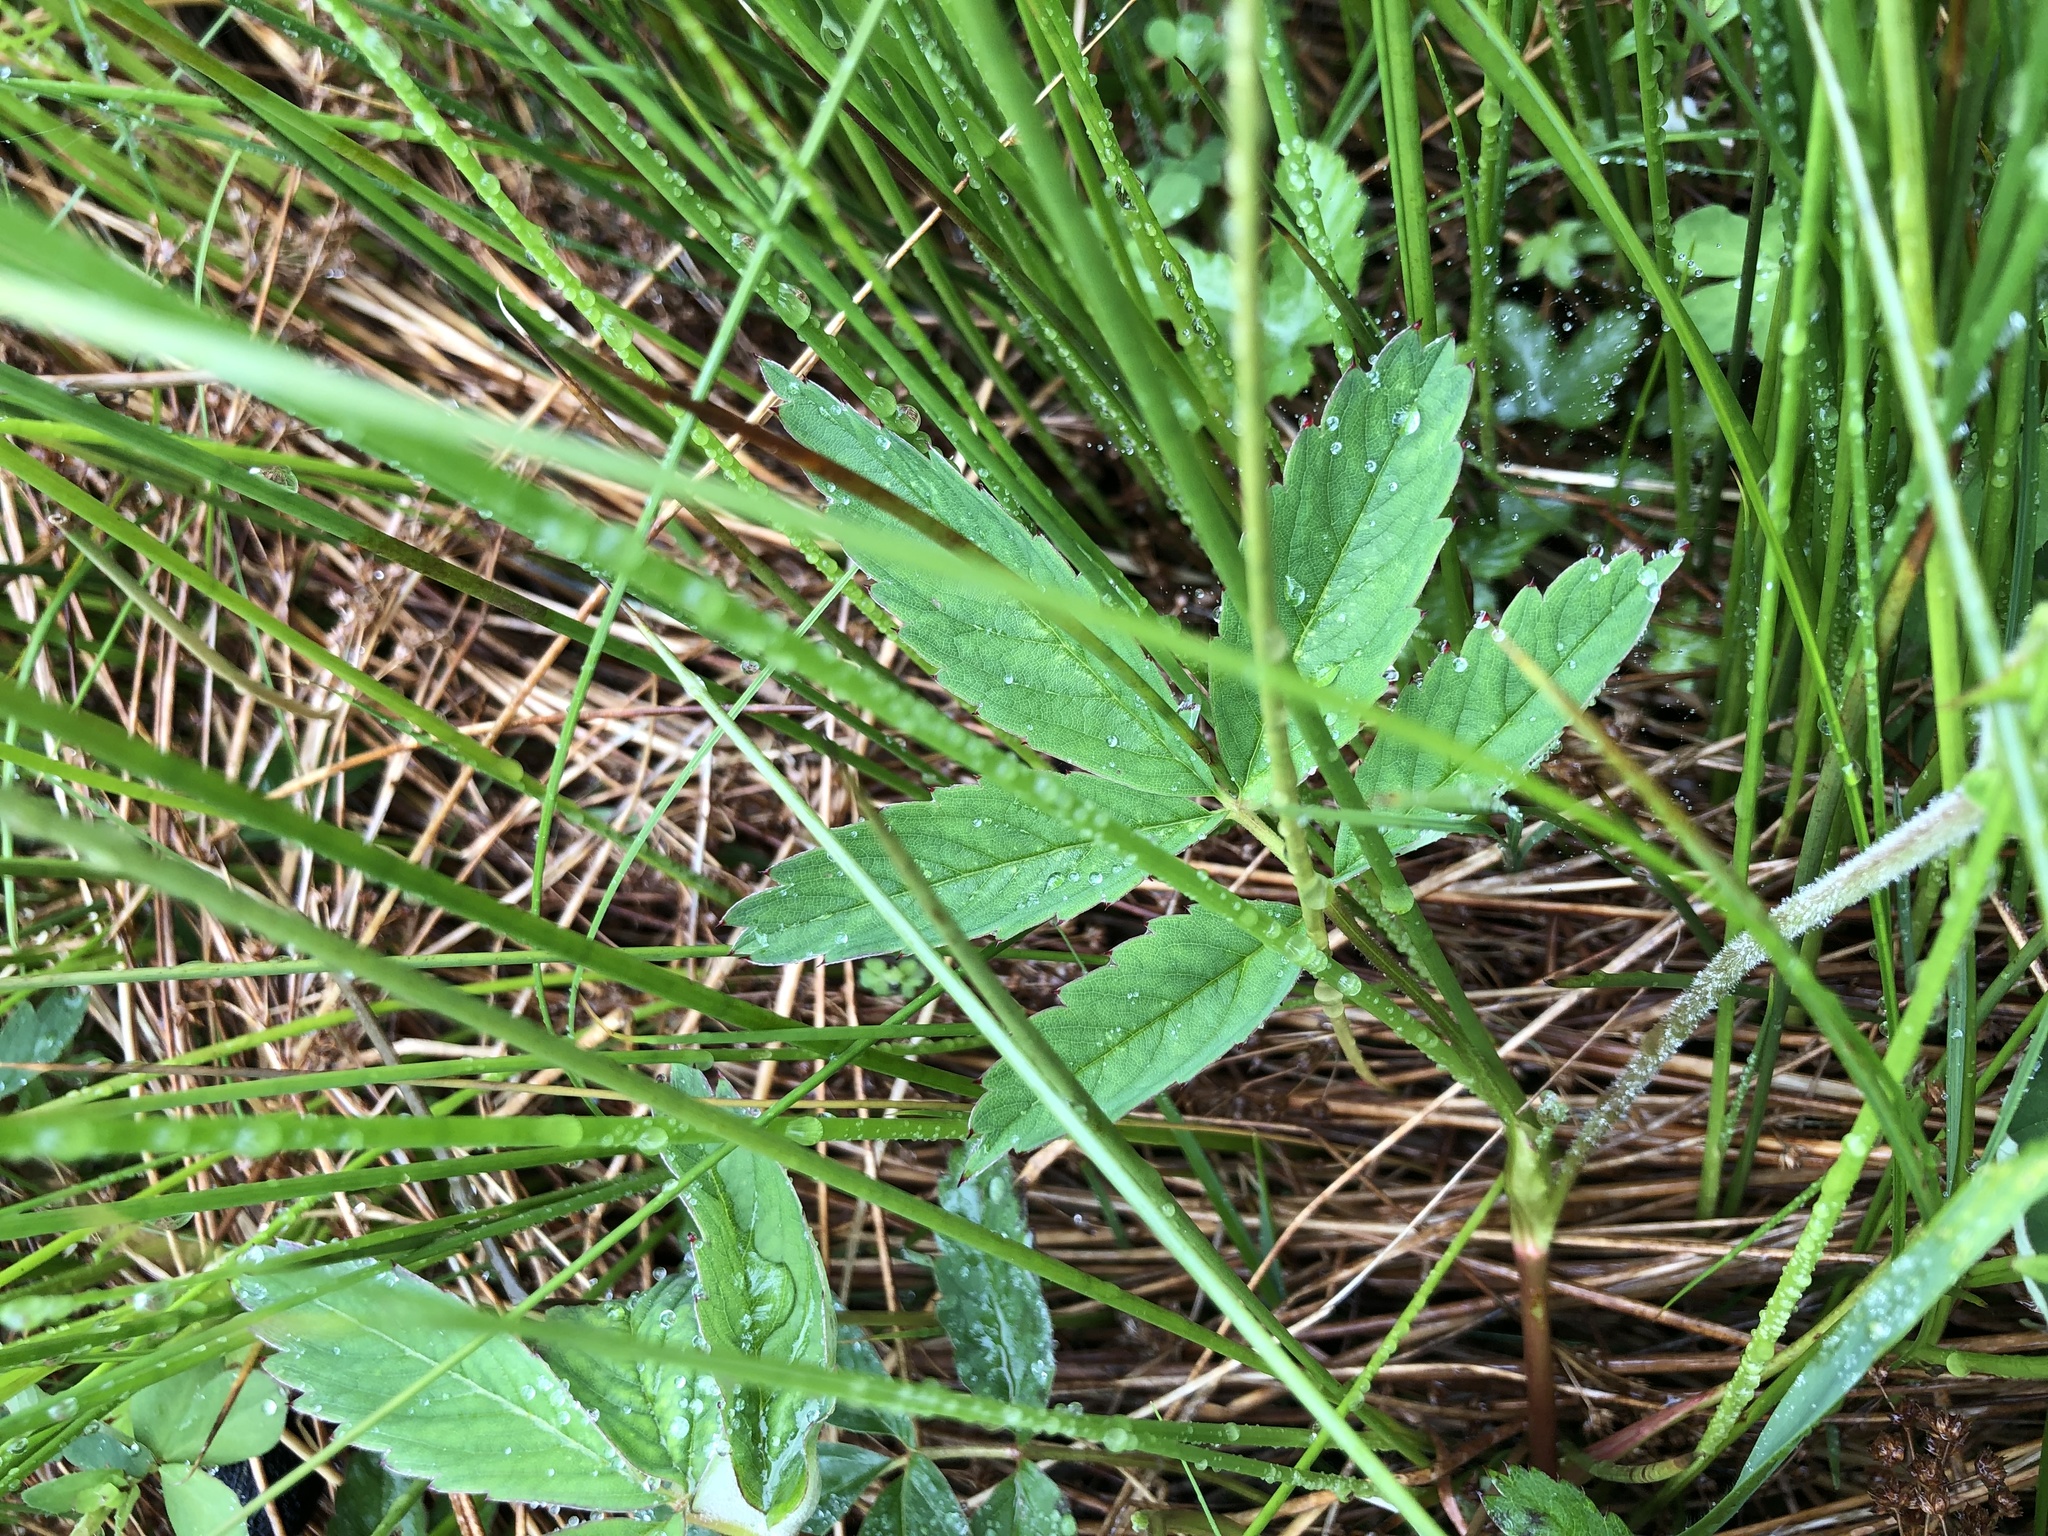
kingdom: Plantae
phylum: Tracheophyta
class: Magnoliopsida
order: Rosales
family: Rosaceae
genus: Comarum
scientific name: Comarum palustre
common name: Marsh cinquefoil
